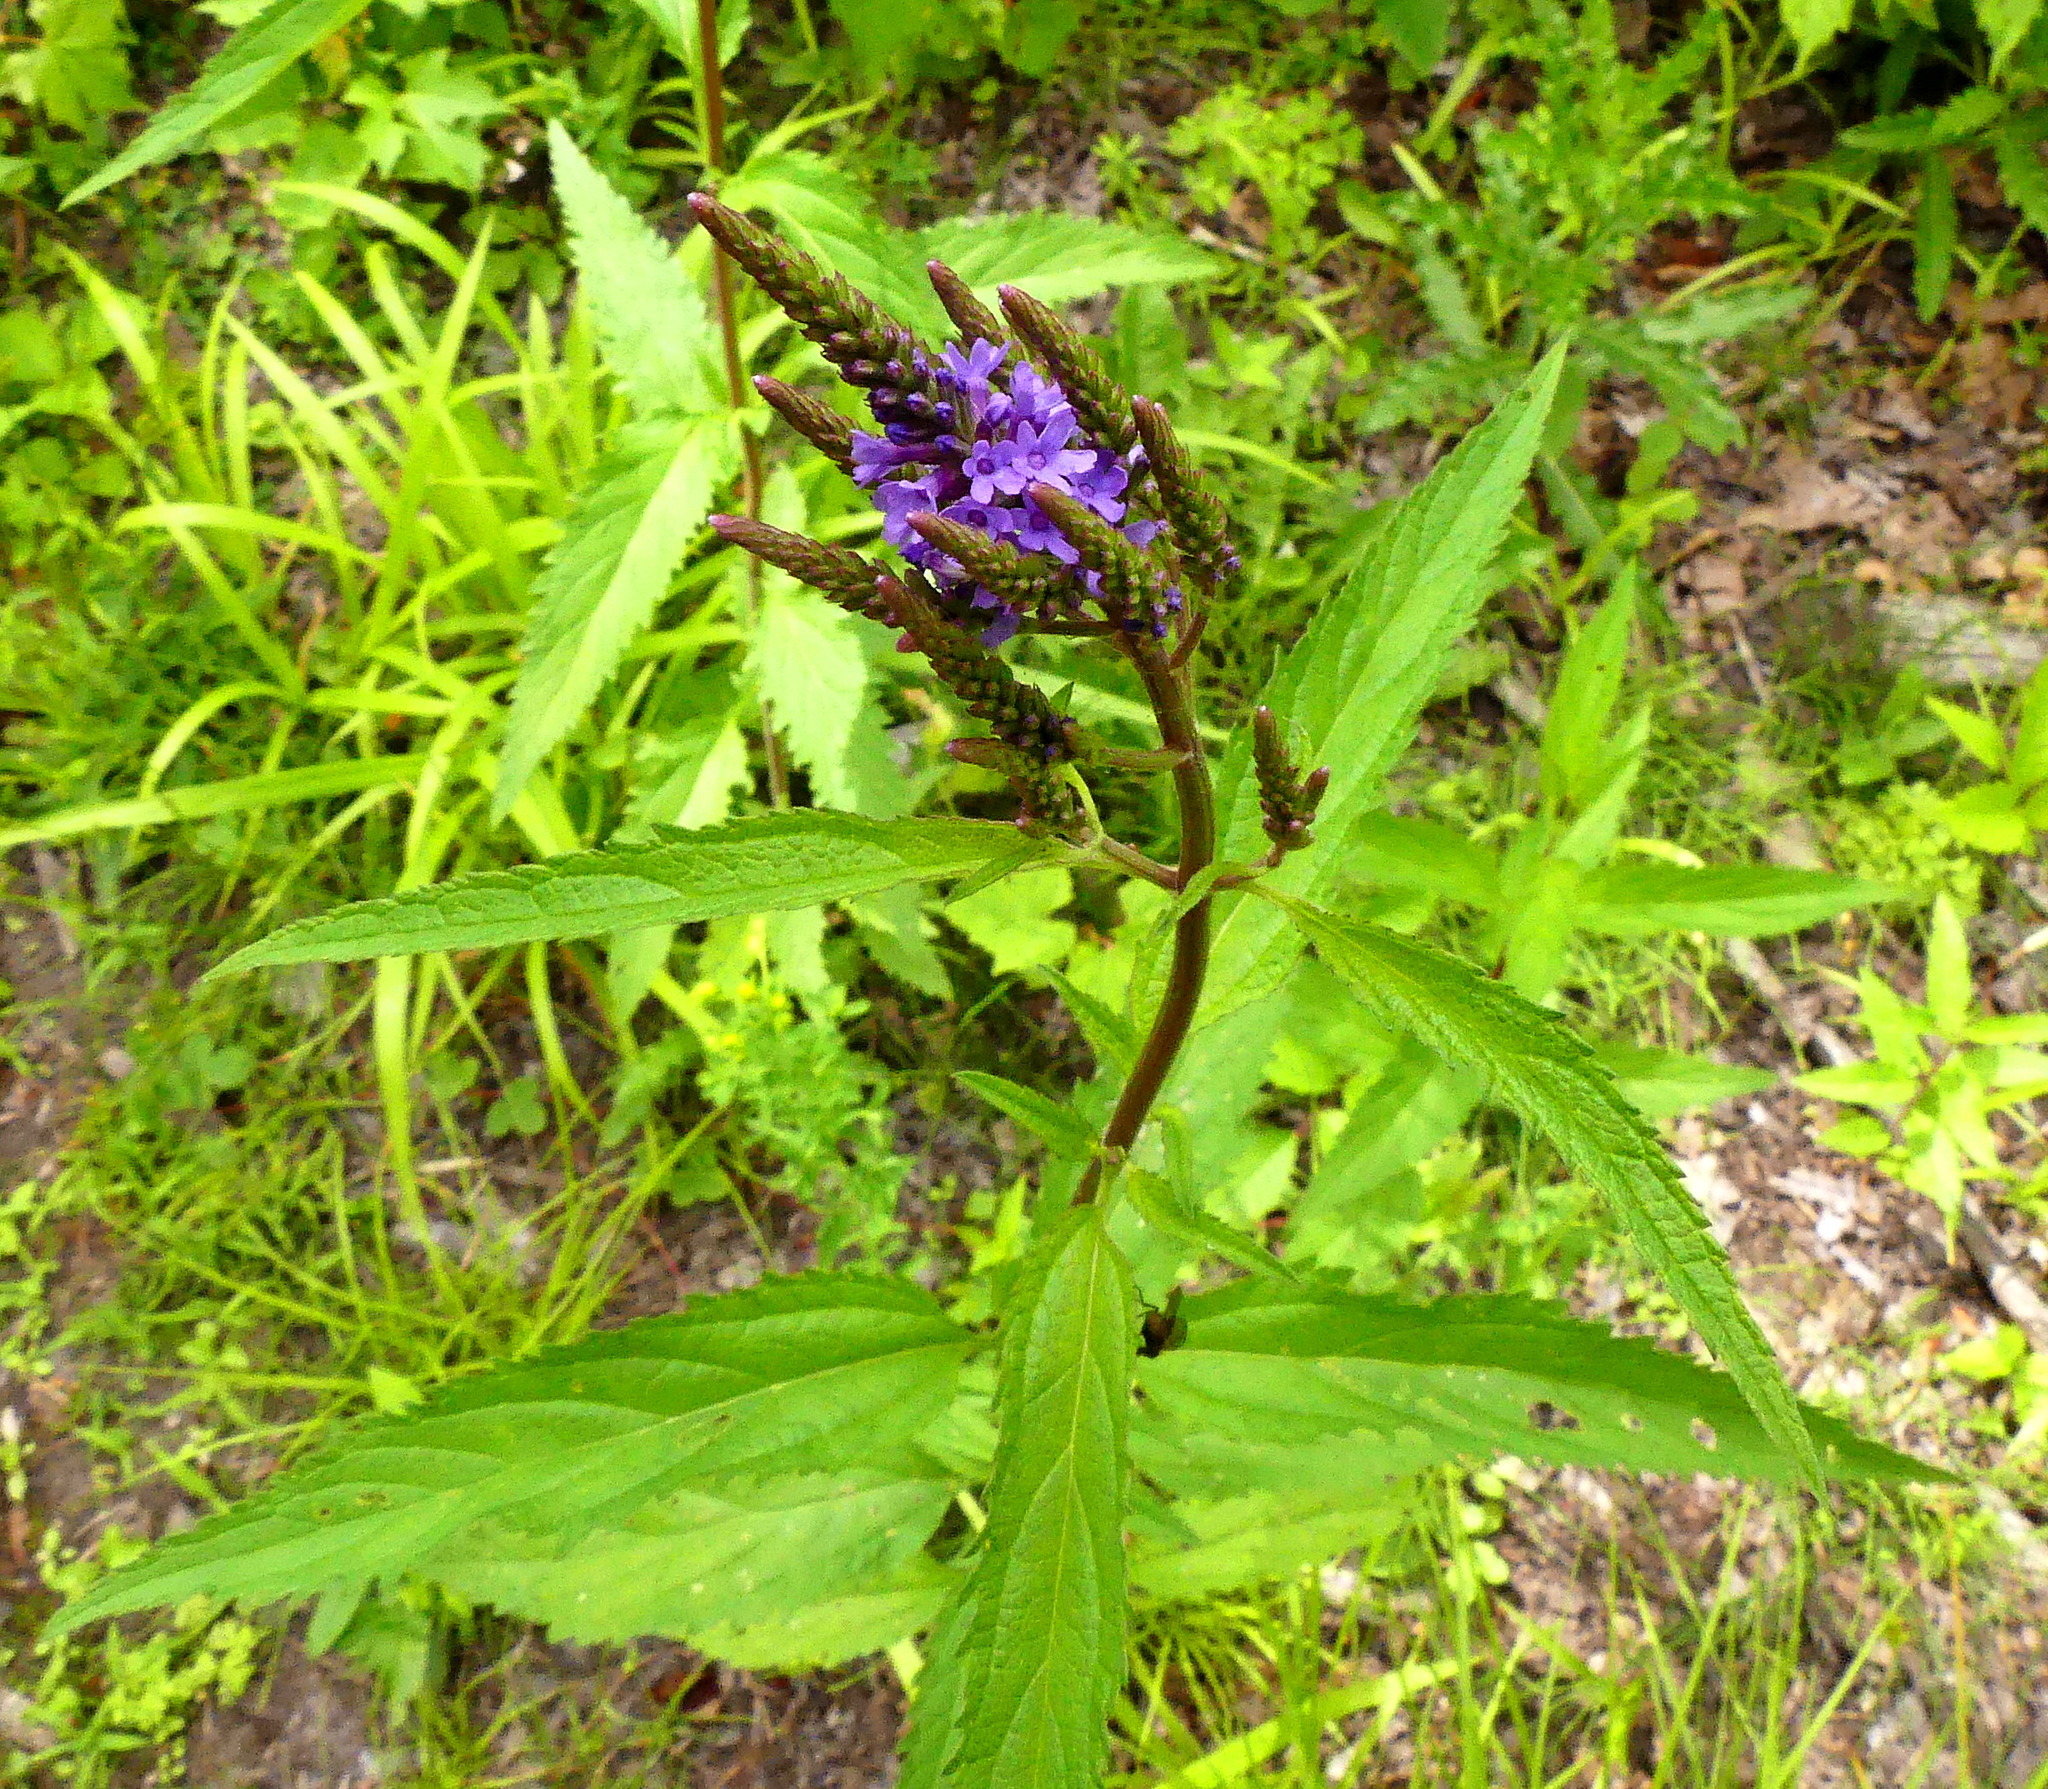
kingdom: Plantae
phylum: Tracheophyta
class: Magnoliopsida
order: Lamiales
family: Verbenaceae
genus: Verbena
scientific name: Verbena hastata
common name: American blue vervain
